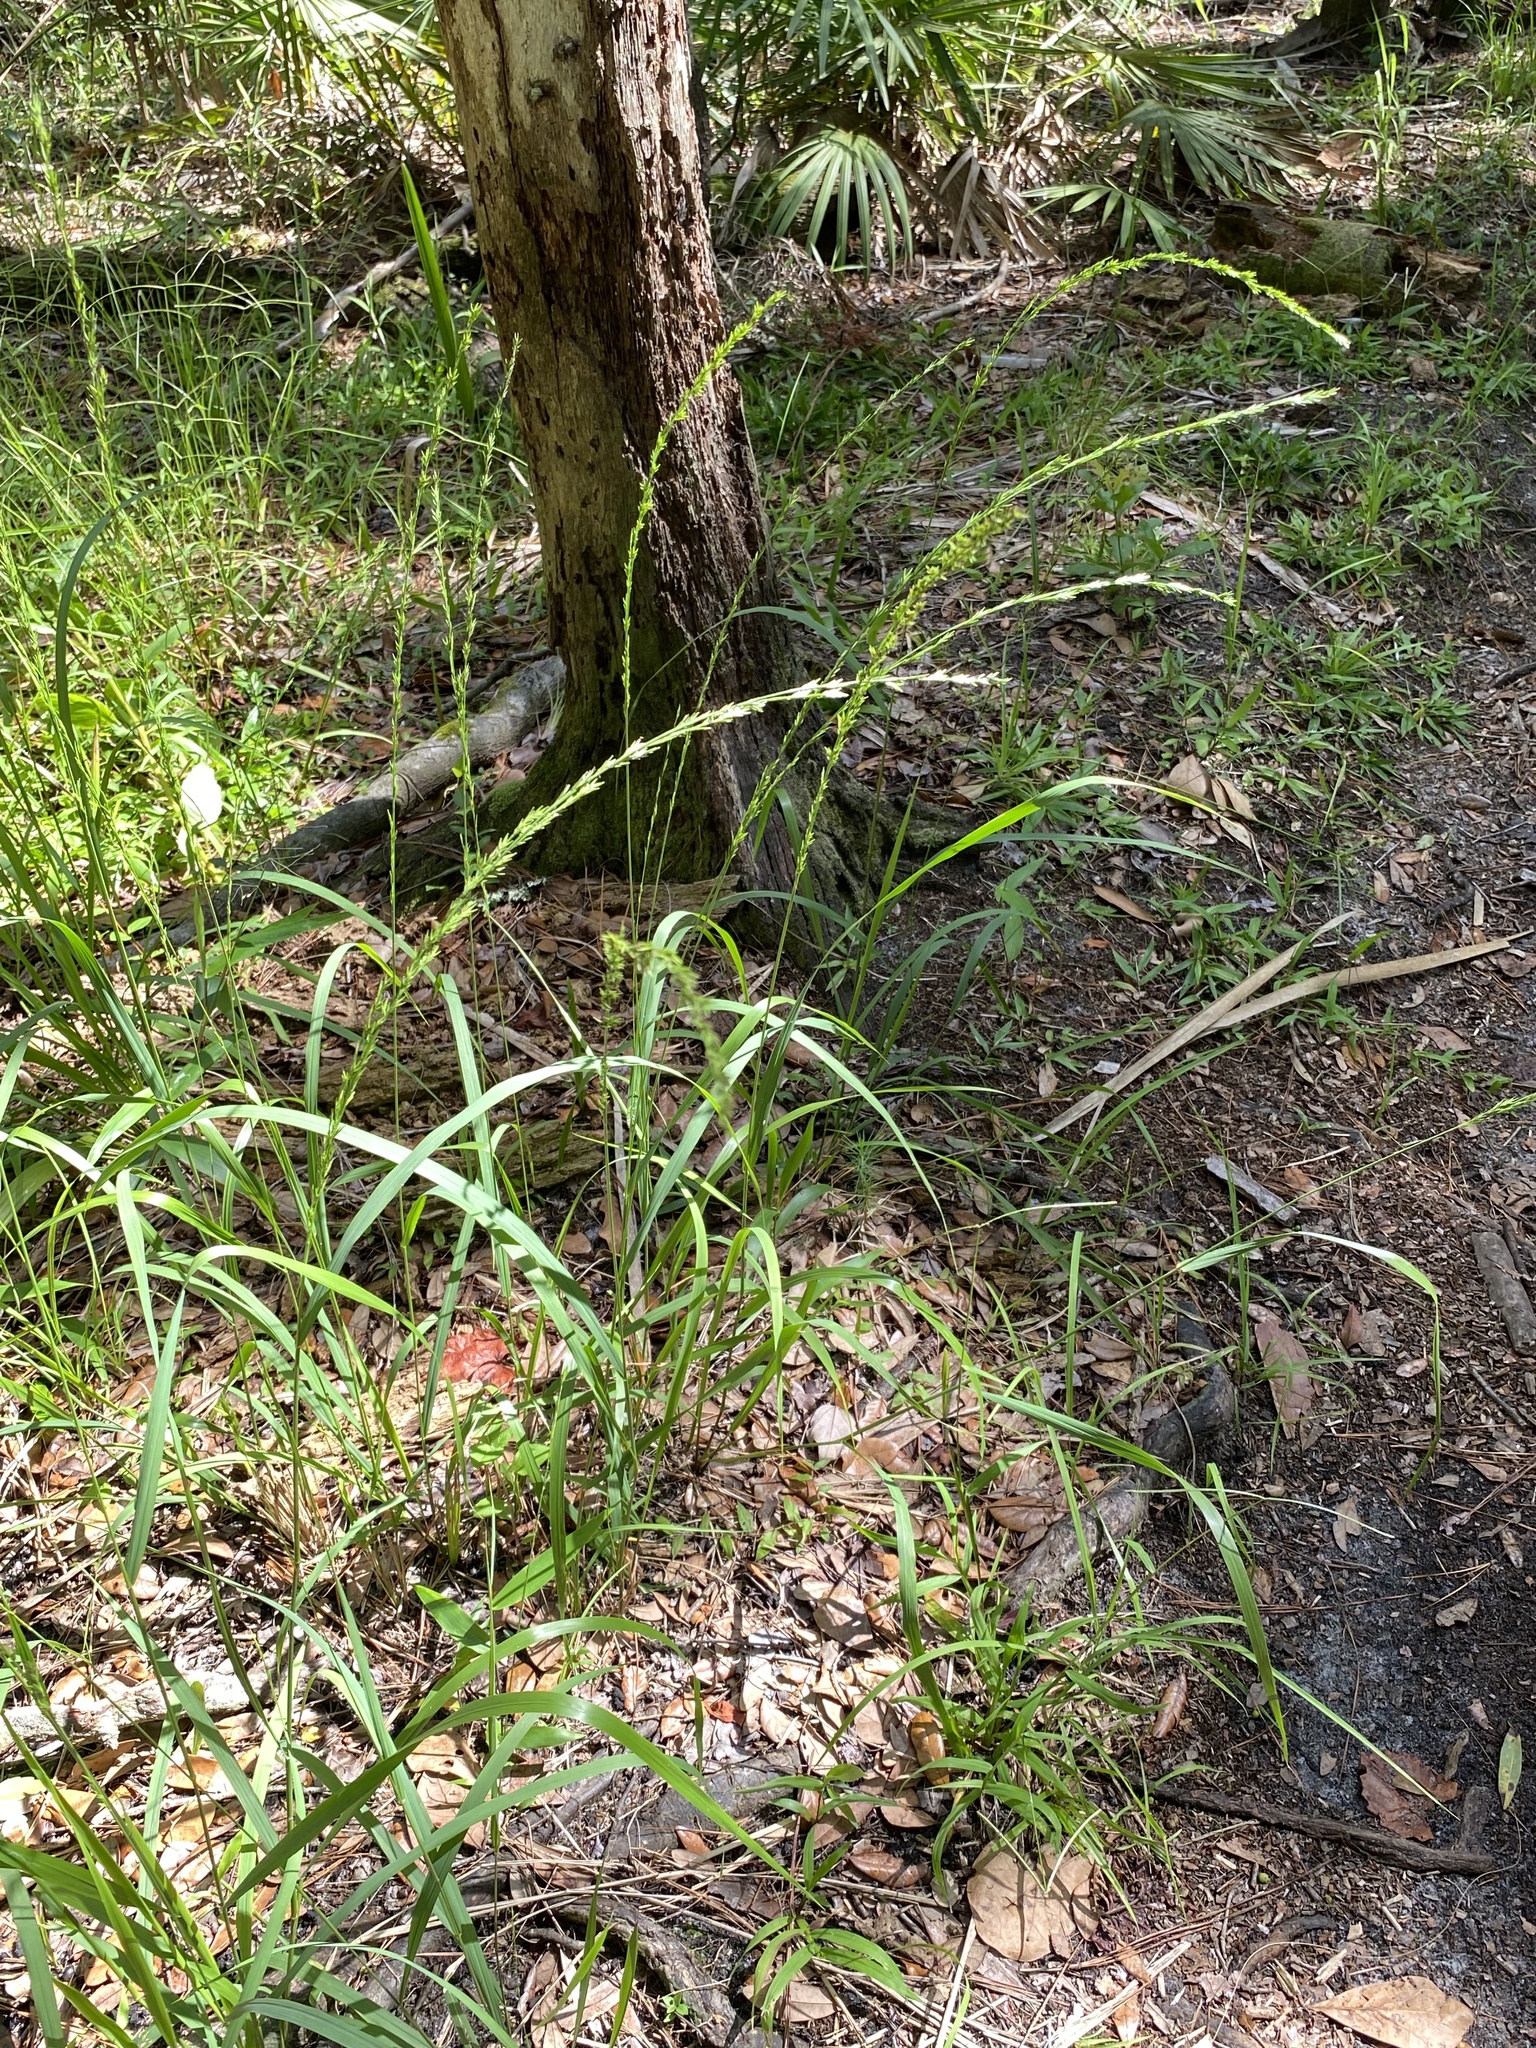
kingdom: Plantae
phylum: Tracheophyta
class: Liliopsida
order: Poales
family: Poaceae
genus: Chasmanthium
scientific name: Chasmanthium laxum
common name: Slender chasmanthium
